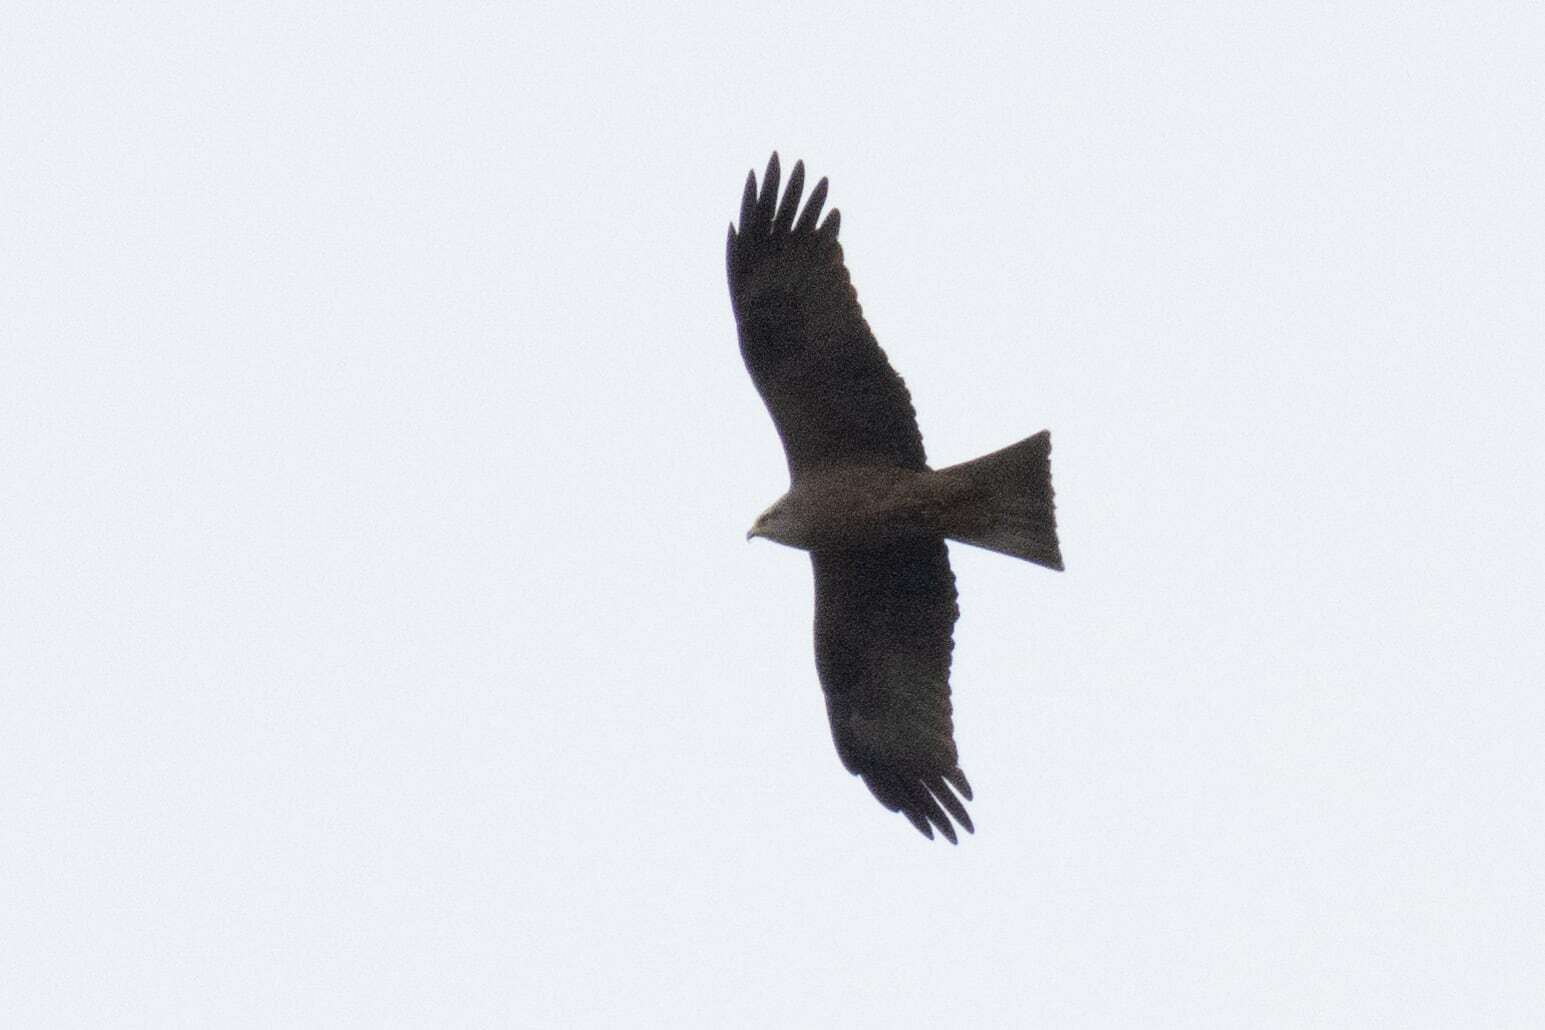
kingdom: Animalia
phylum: Chordata
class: Aves
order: Accipitriformes
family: Accipitridae
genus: Milvus
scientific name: Milvus migrans
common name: Black kite
